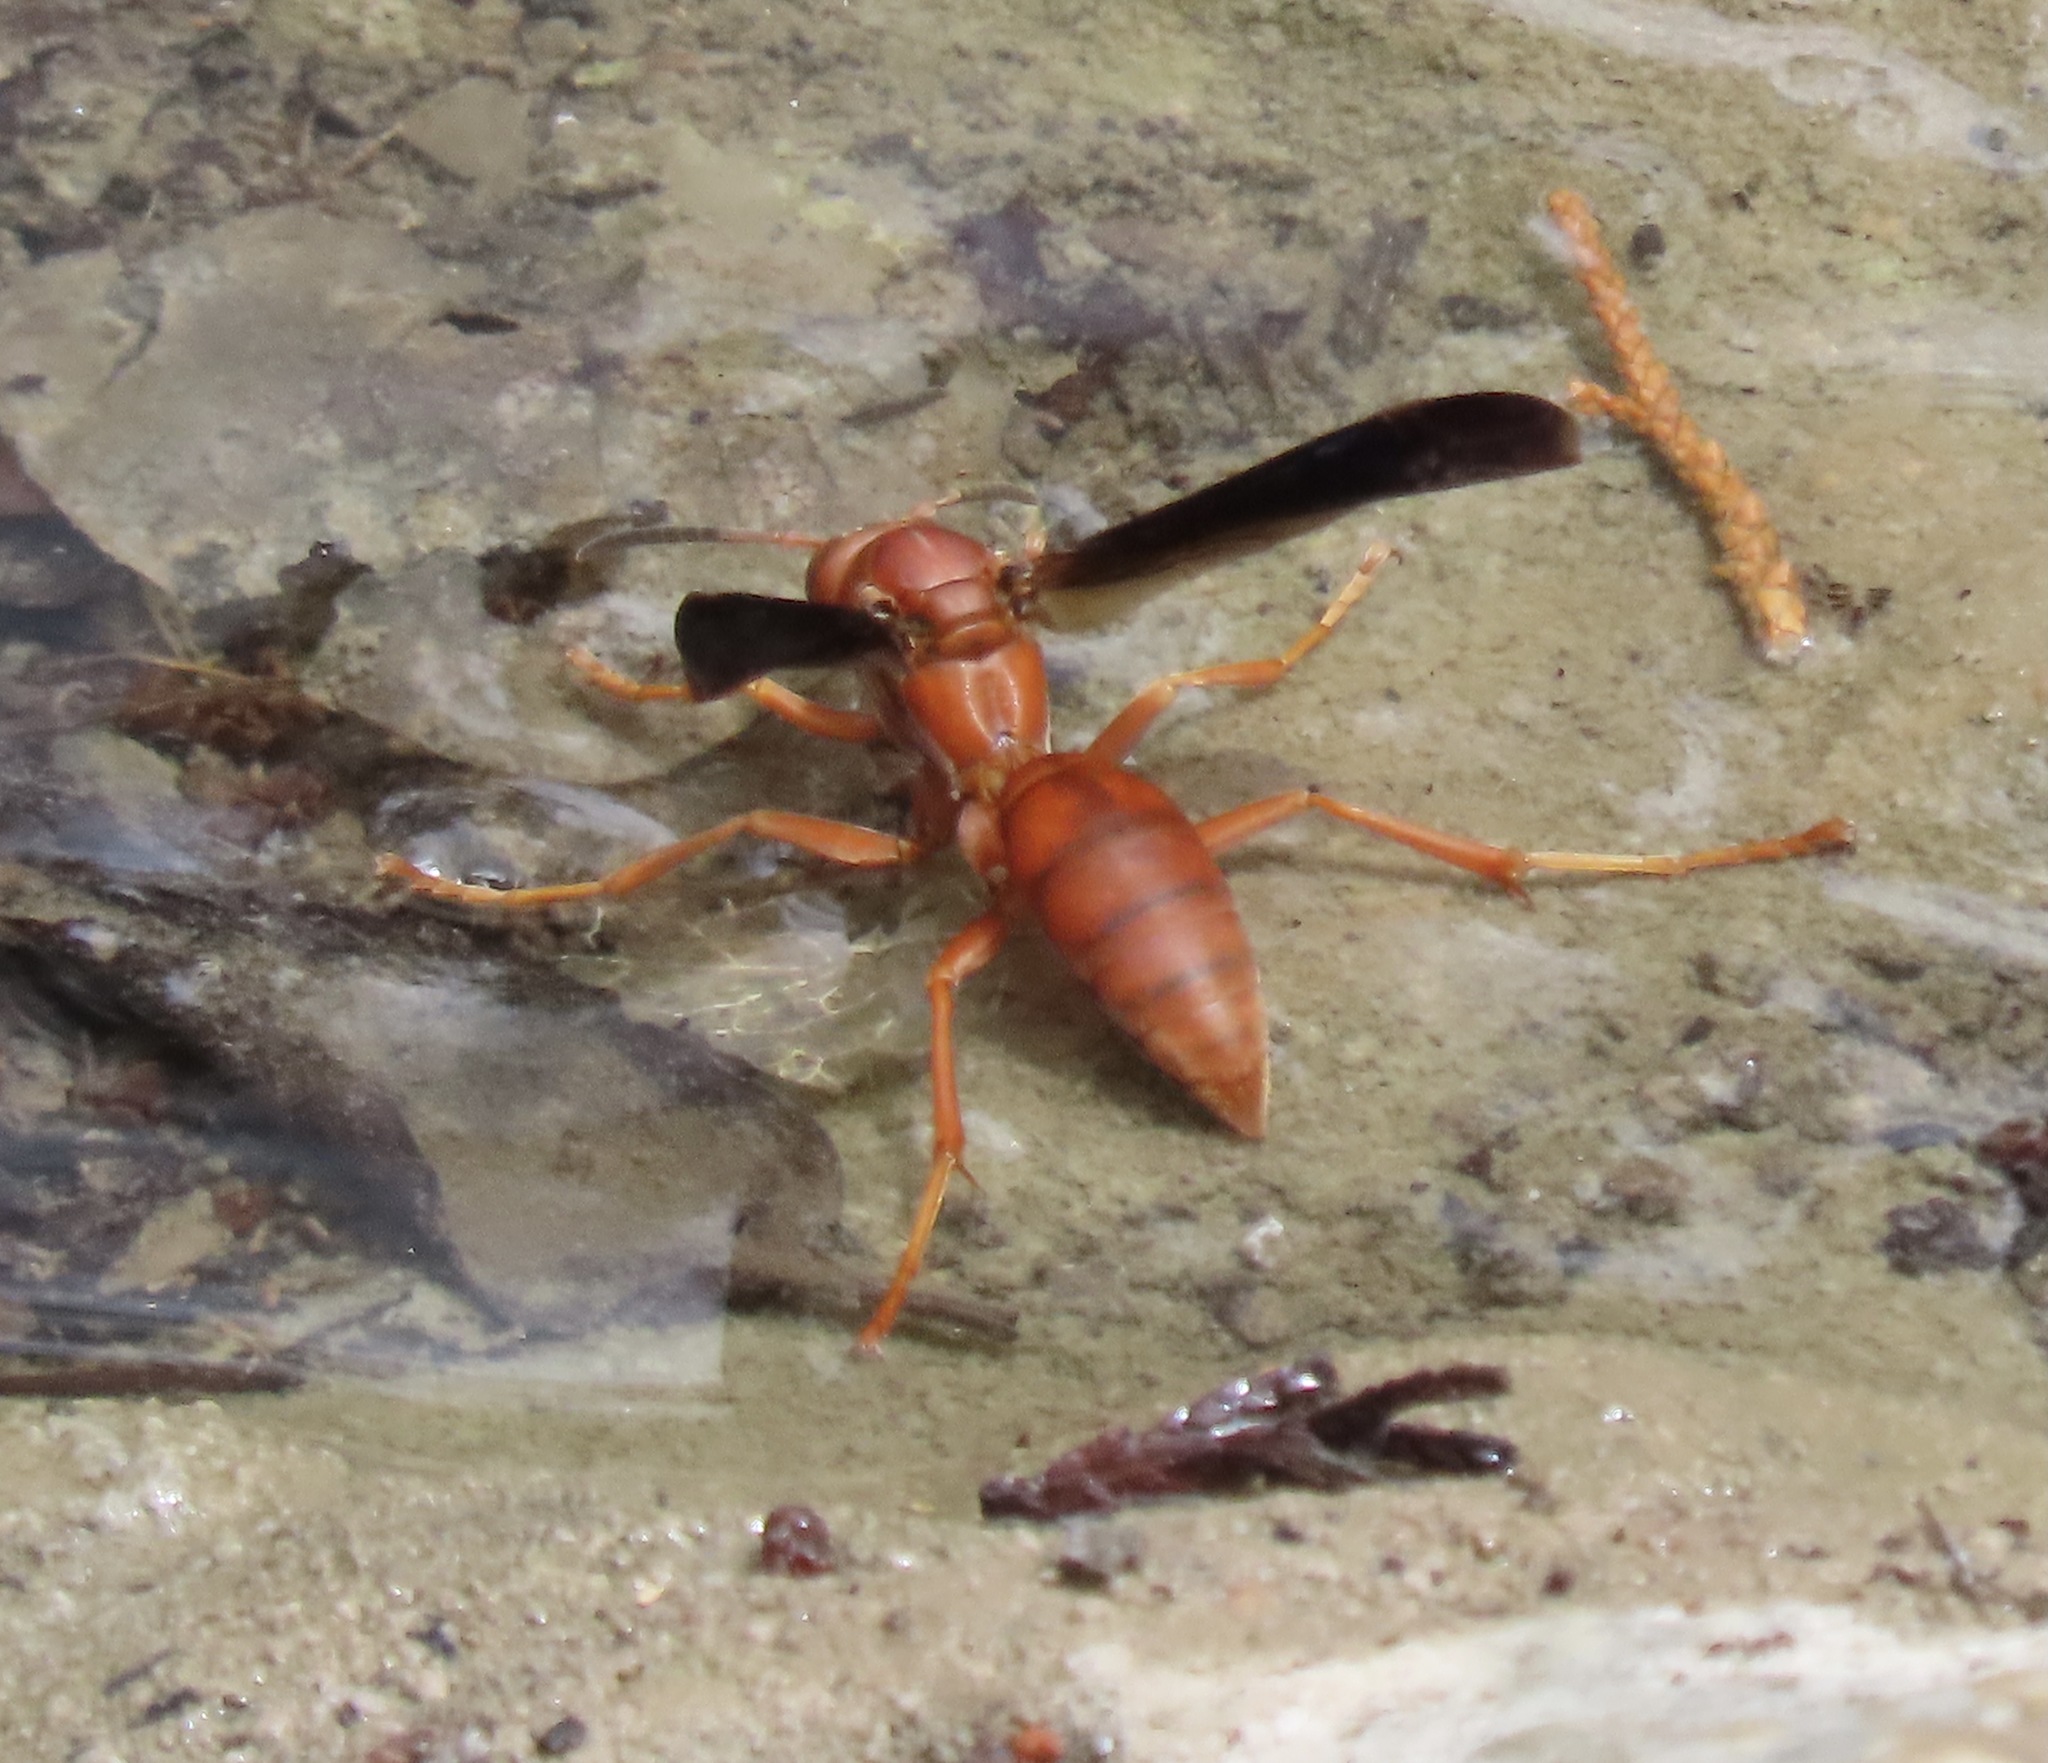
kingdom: Animalia
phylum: Arthropoda
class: Insecta
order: Hymenoptera
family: Vespidae
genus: Fuscopolistes
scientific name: Fuscopolistes
